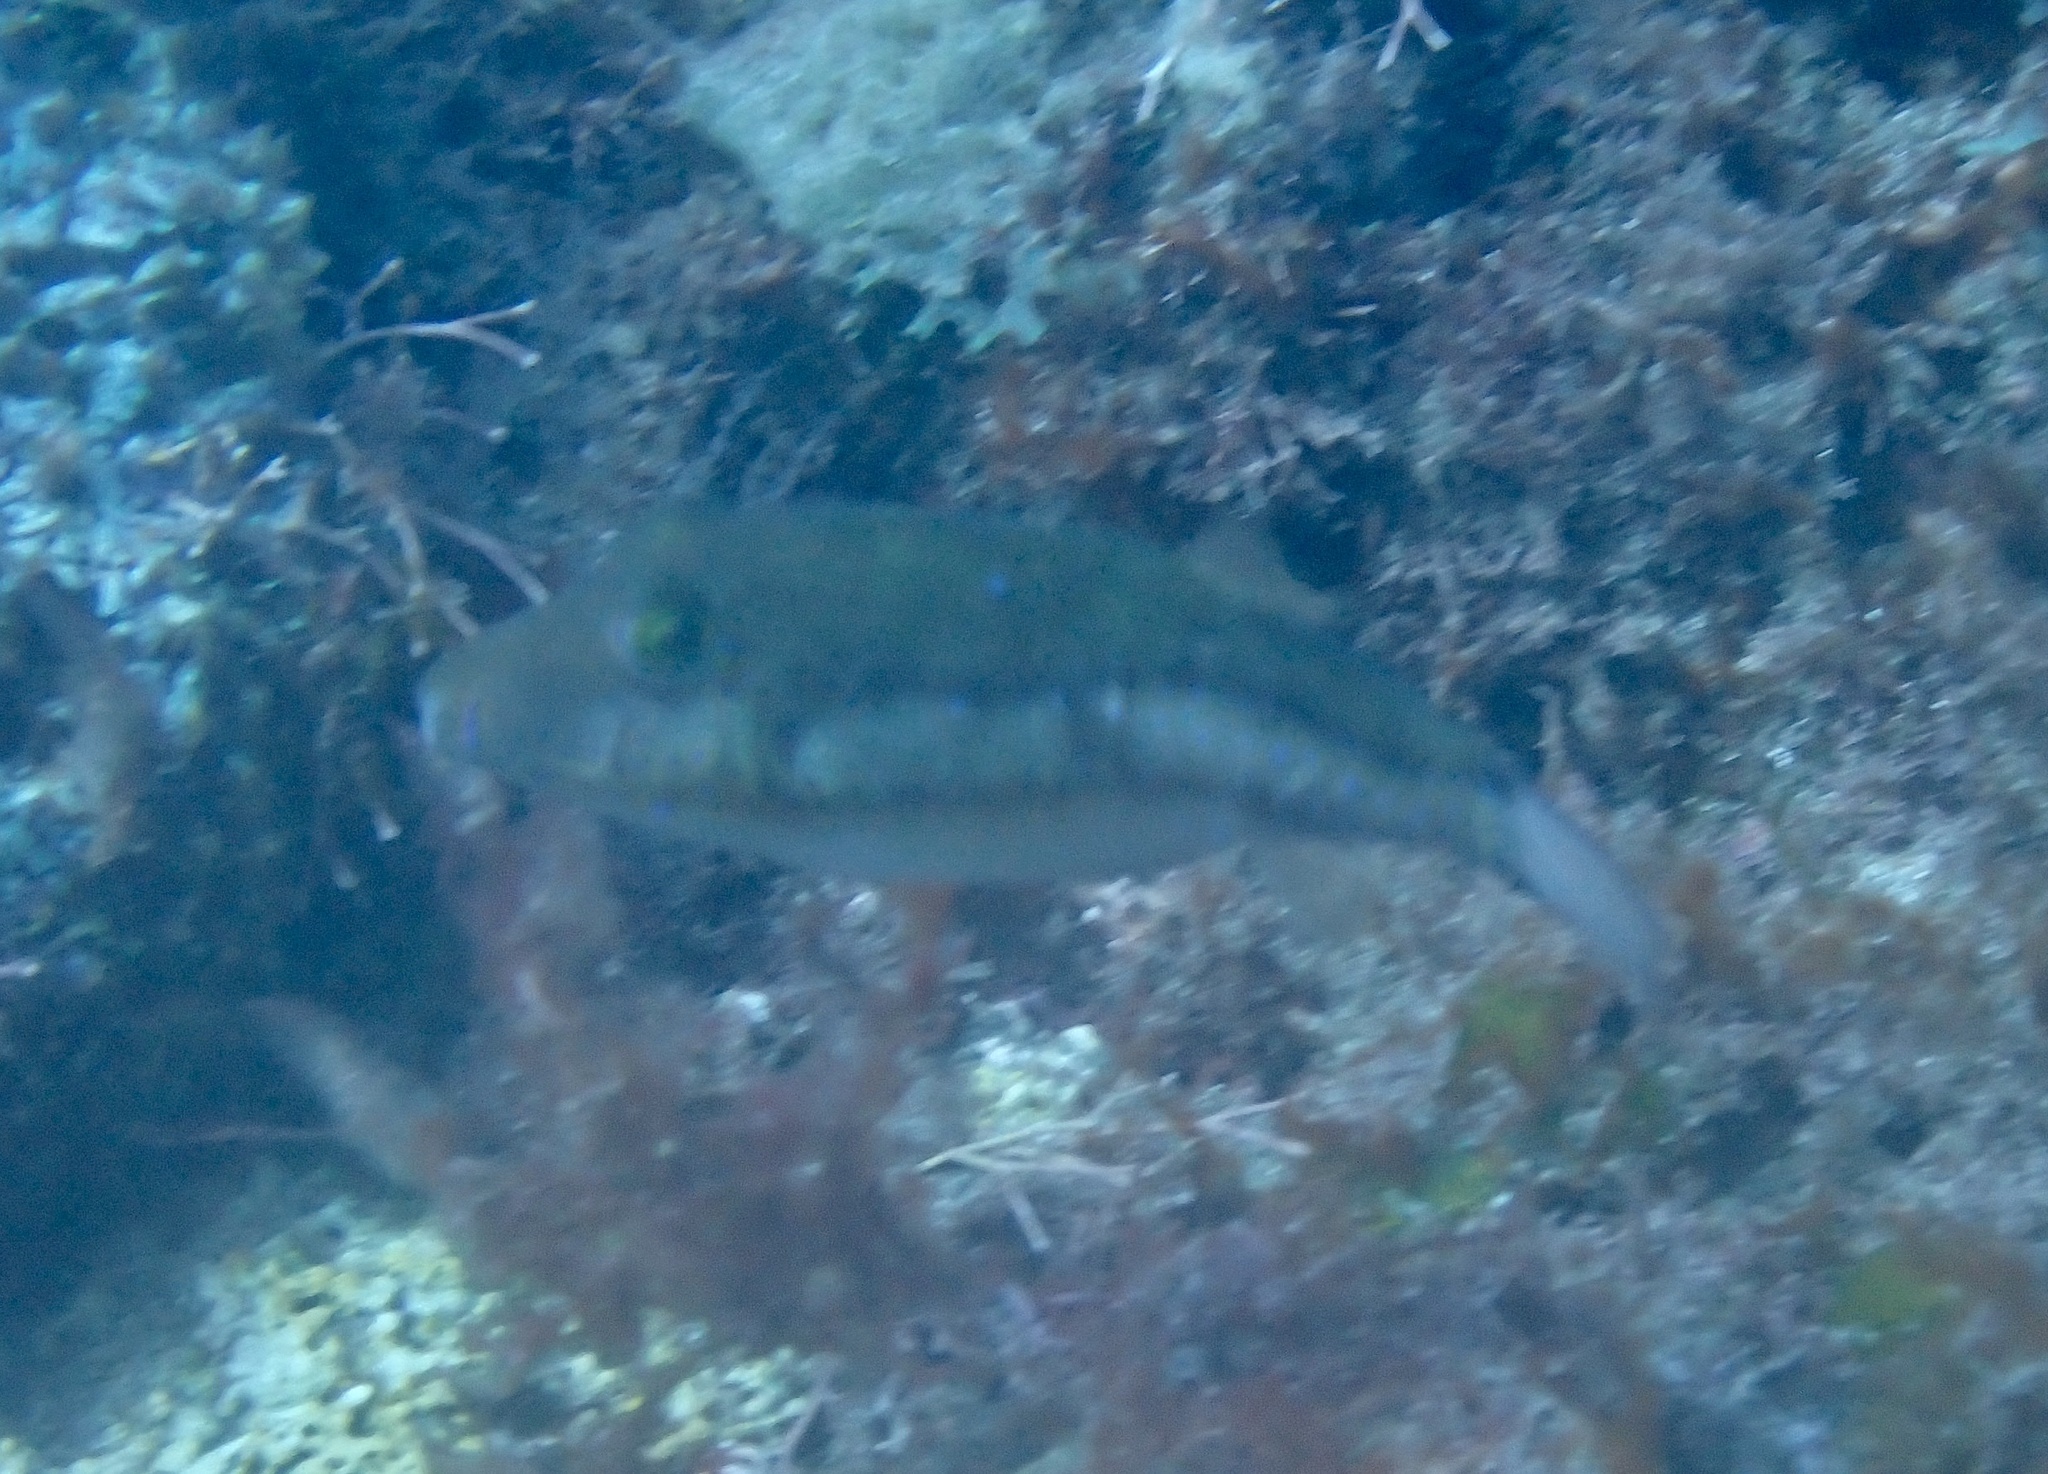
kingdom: Animalia
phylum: Chordata
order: Tetraodontiformes
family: Tetraodontidae
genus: Canthigaster
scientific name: Canthigaster capistrata
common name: Macaronesian sharpnose-puffer
